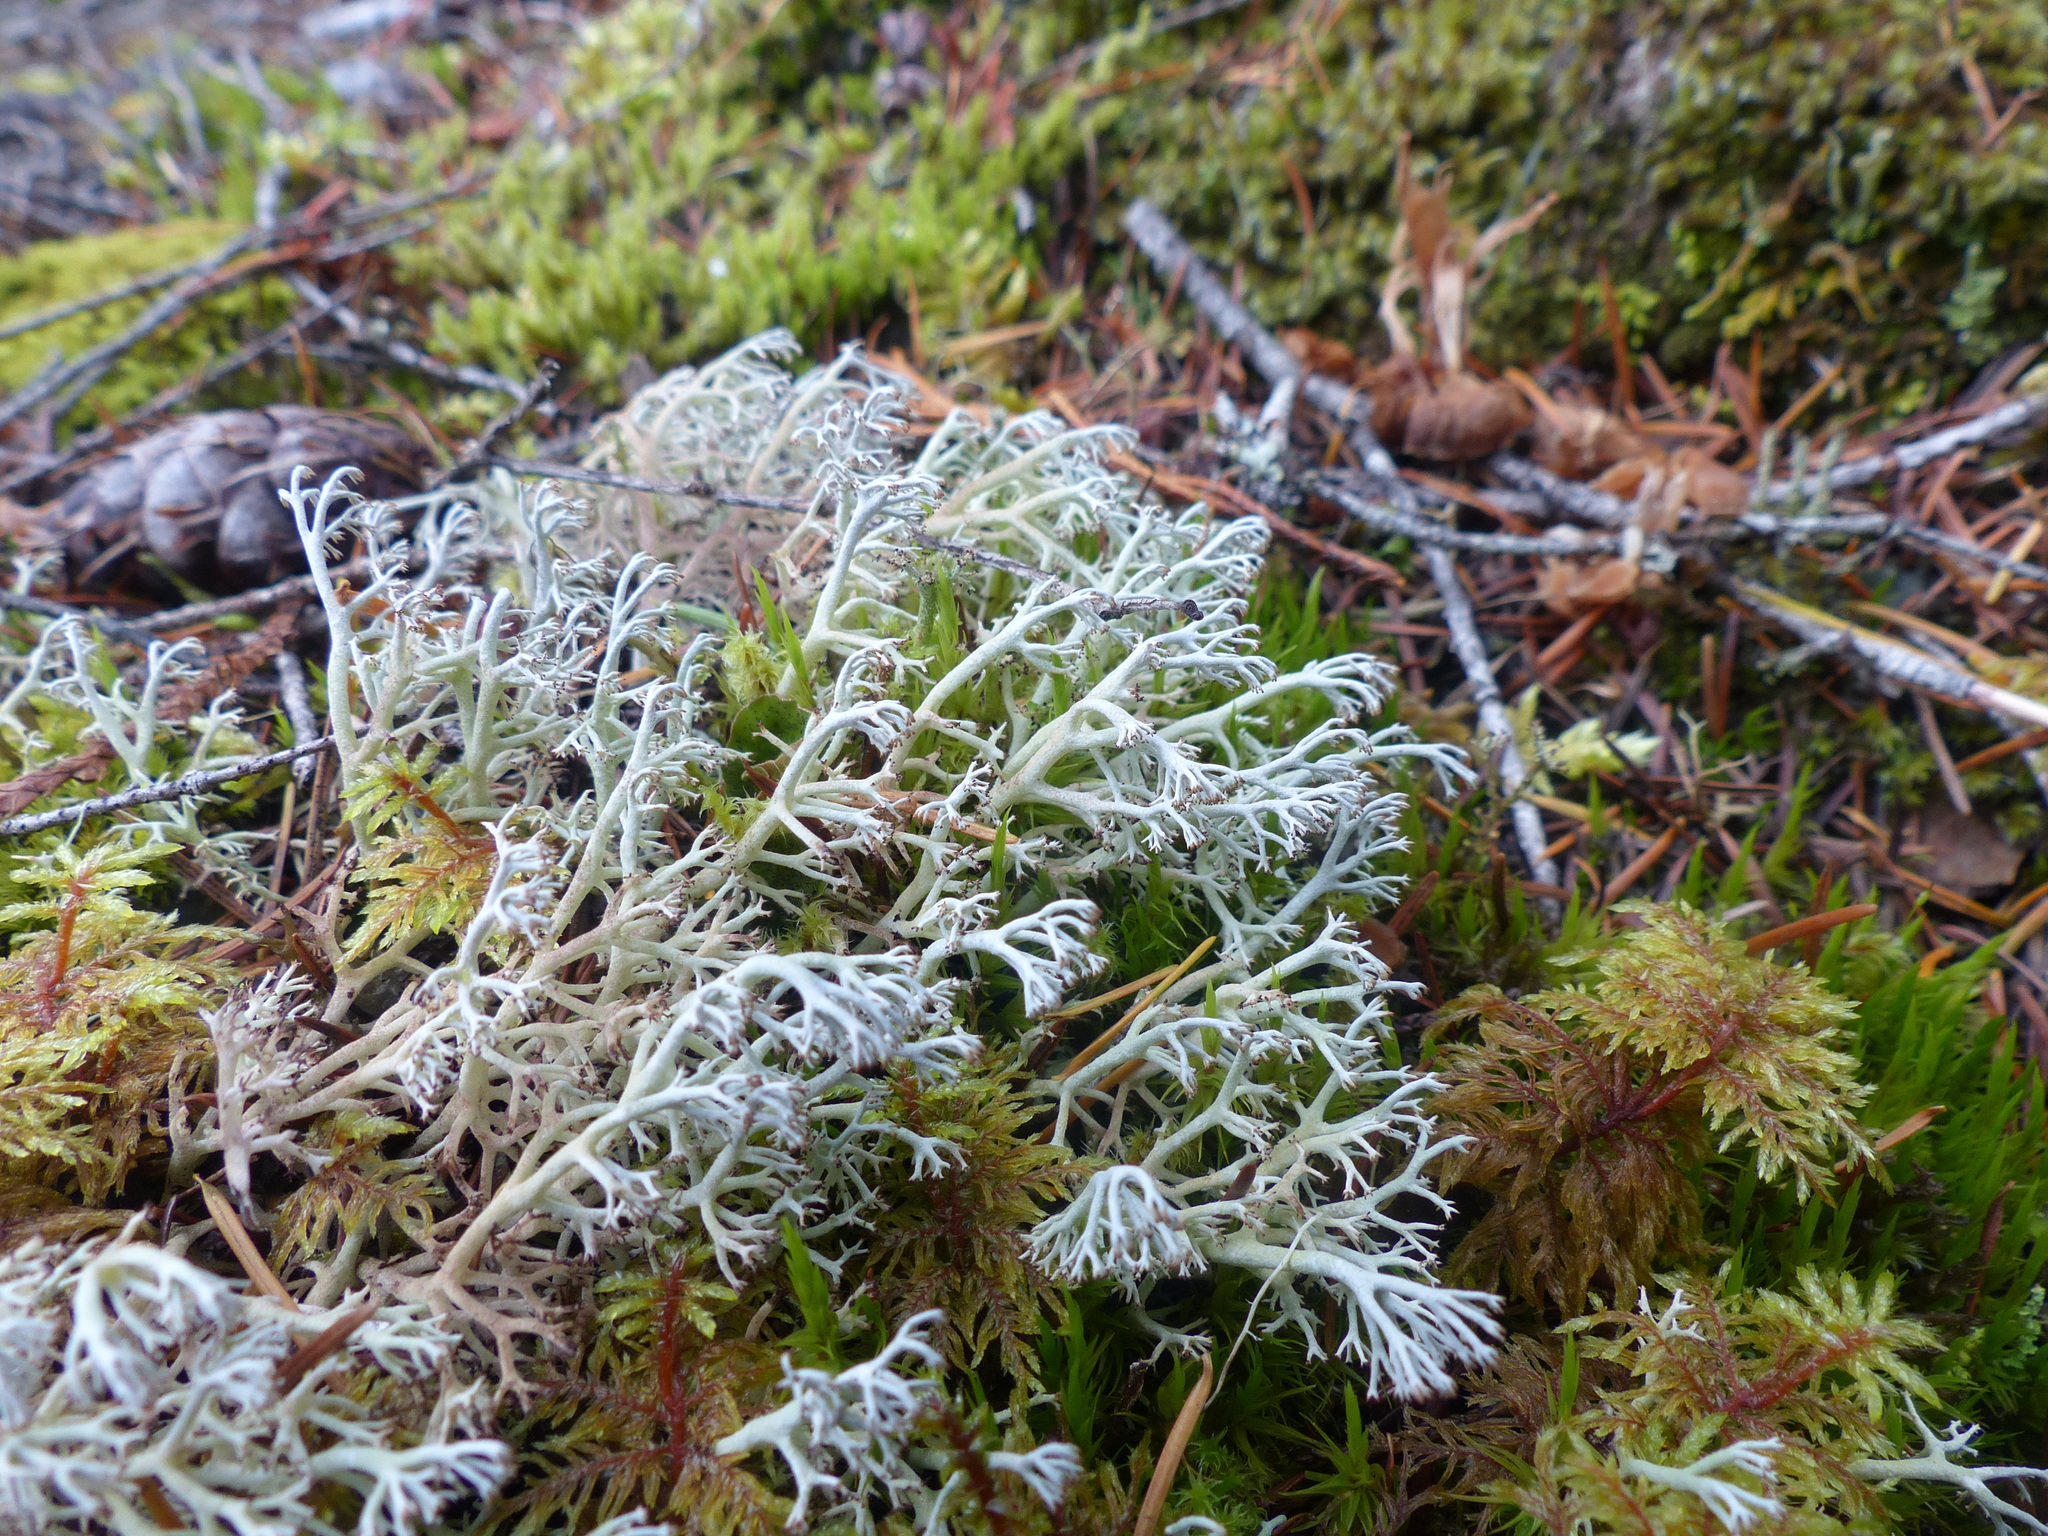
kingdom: Fungi
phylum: Ascomycota
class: Lecanoromycetes
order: Lecanorales
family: Cladoniaceae
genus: Cladonia
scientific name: Cladonia rangiferina
